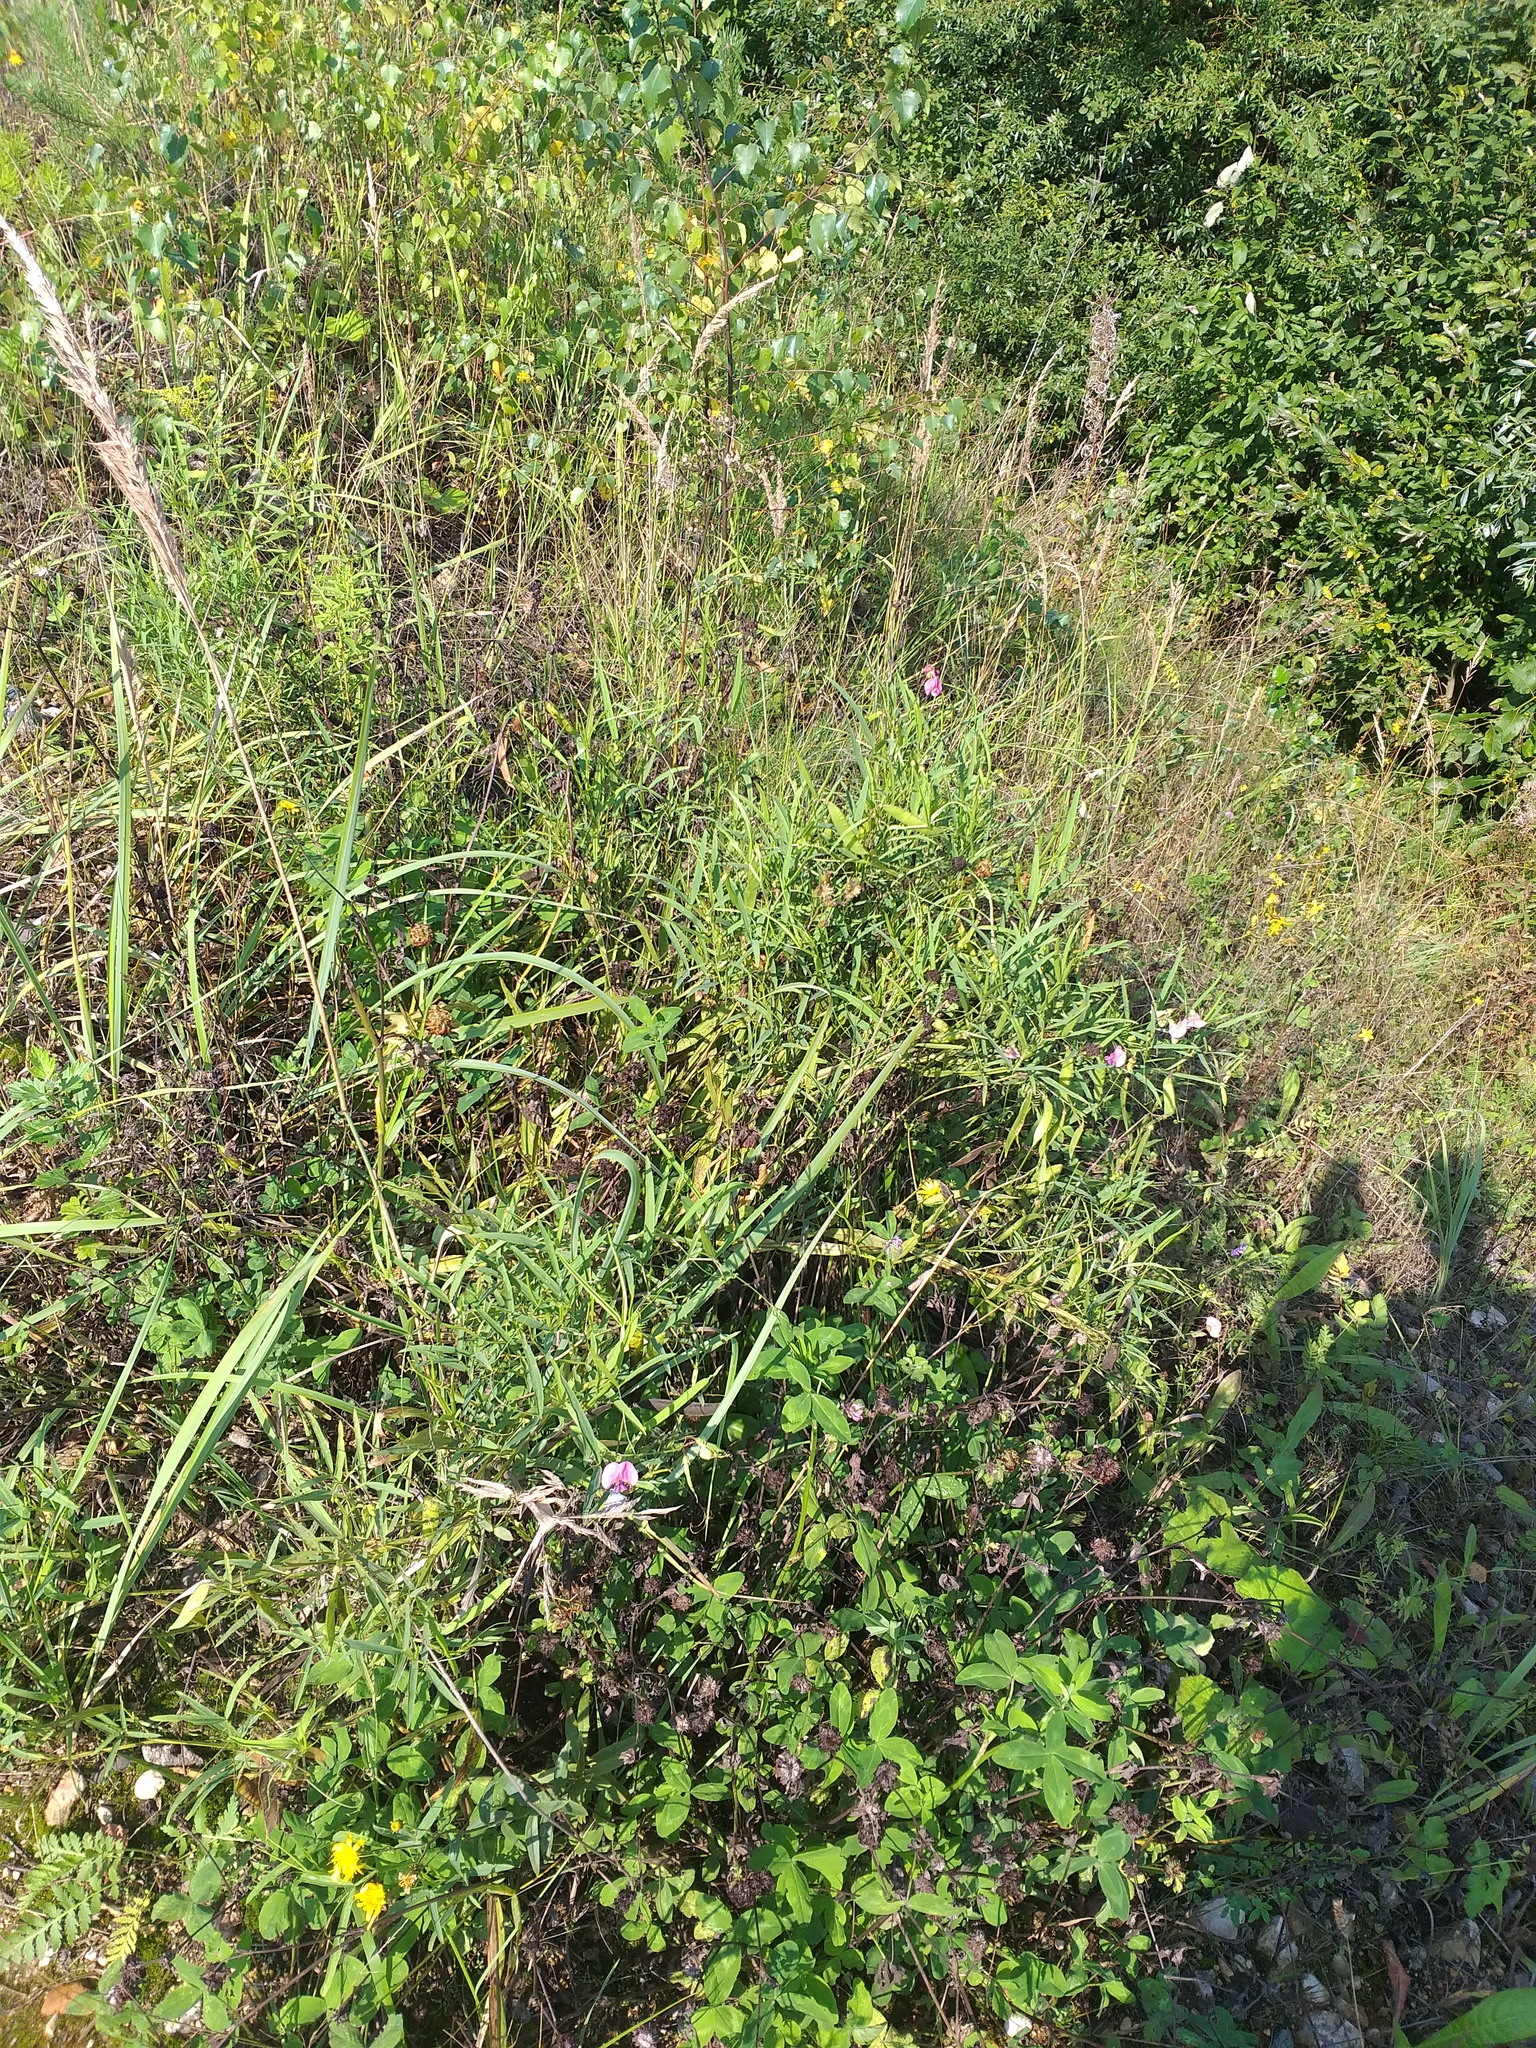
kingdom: Plantae
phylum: Tracheophyta
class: Magnoliopsida
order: Fabales
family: Fabaceae
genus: Lathyrus
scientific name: Lathyrus sylvestris
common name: Flat pea
